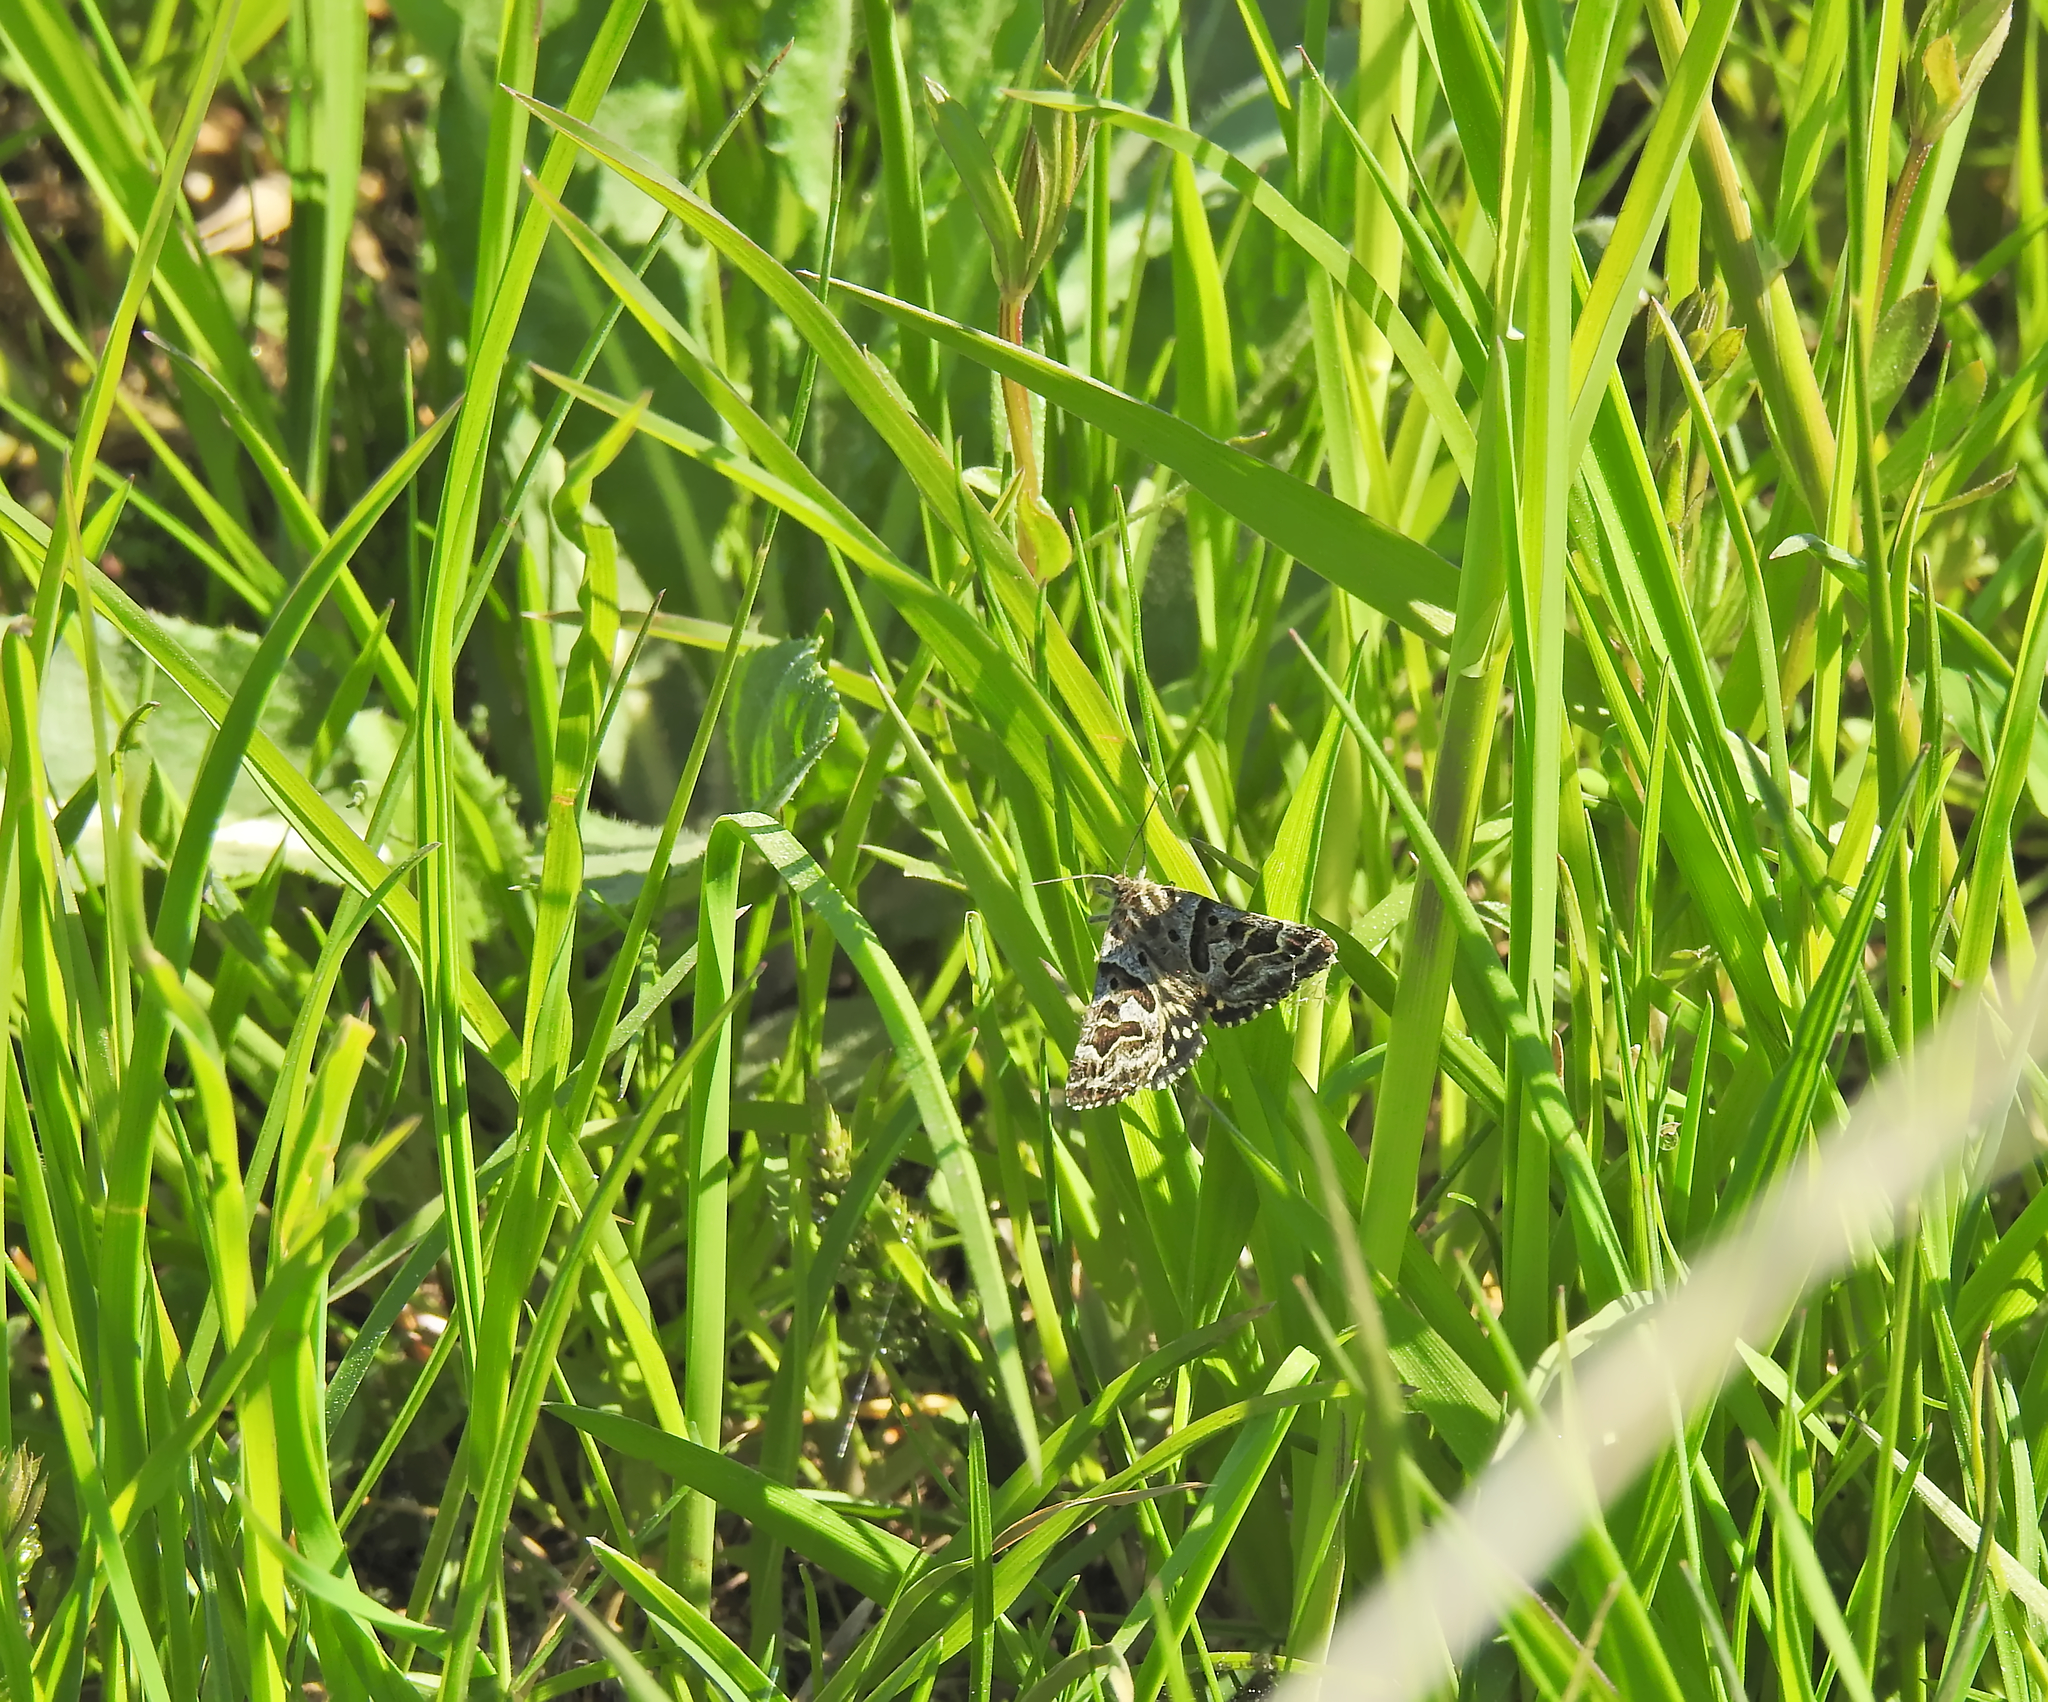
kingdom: Animalia
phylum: Arthropoda
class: Insecta
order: Lepidoptera
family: Erebidae
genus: Callistege
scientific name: Callistege mi
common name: Mother shipton
